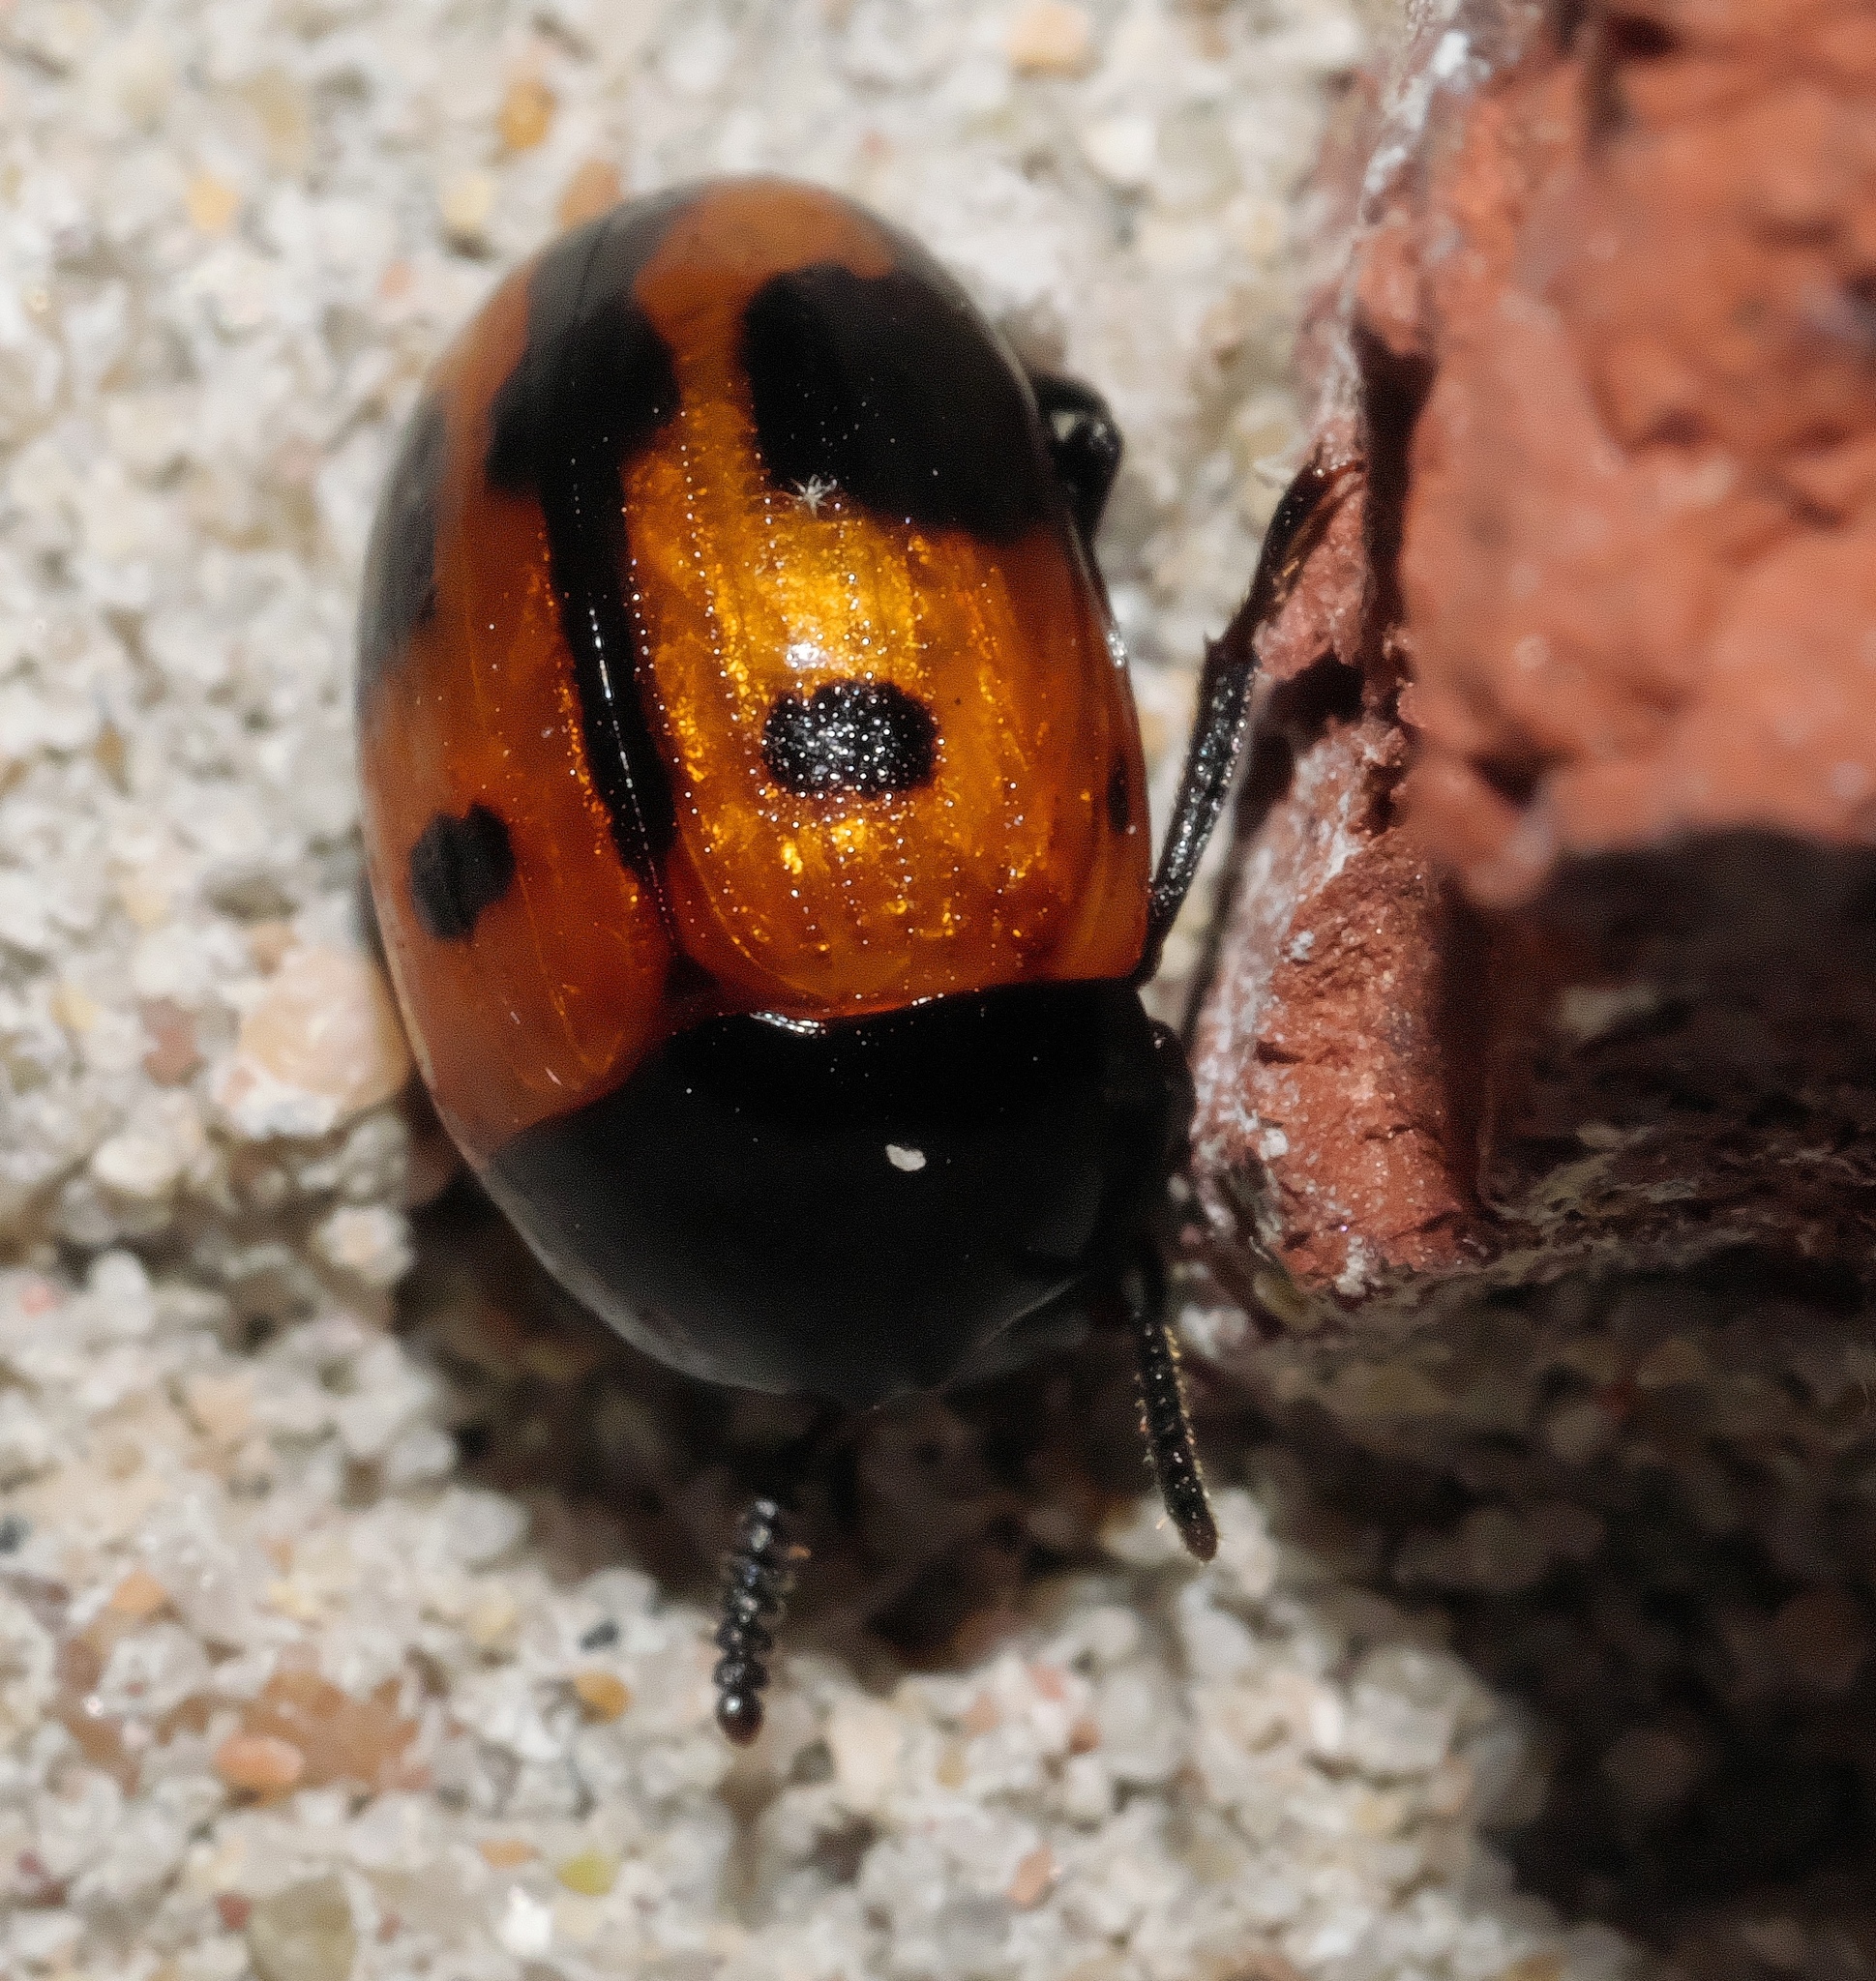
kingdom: Animalia
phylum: Arthropoda
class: Insecta
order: Coleoptera
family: Tenebrionidae
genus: Diaperis
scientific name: Diaperis maculata
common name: Darkling beetle
